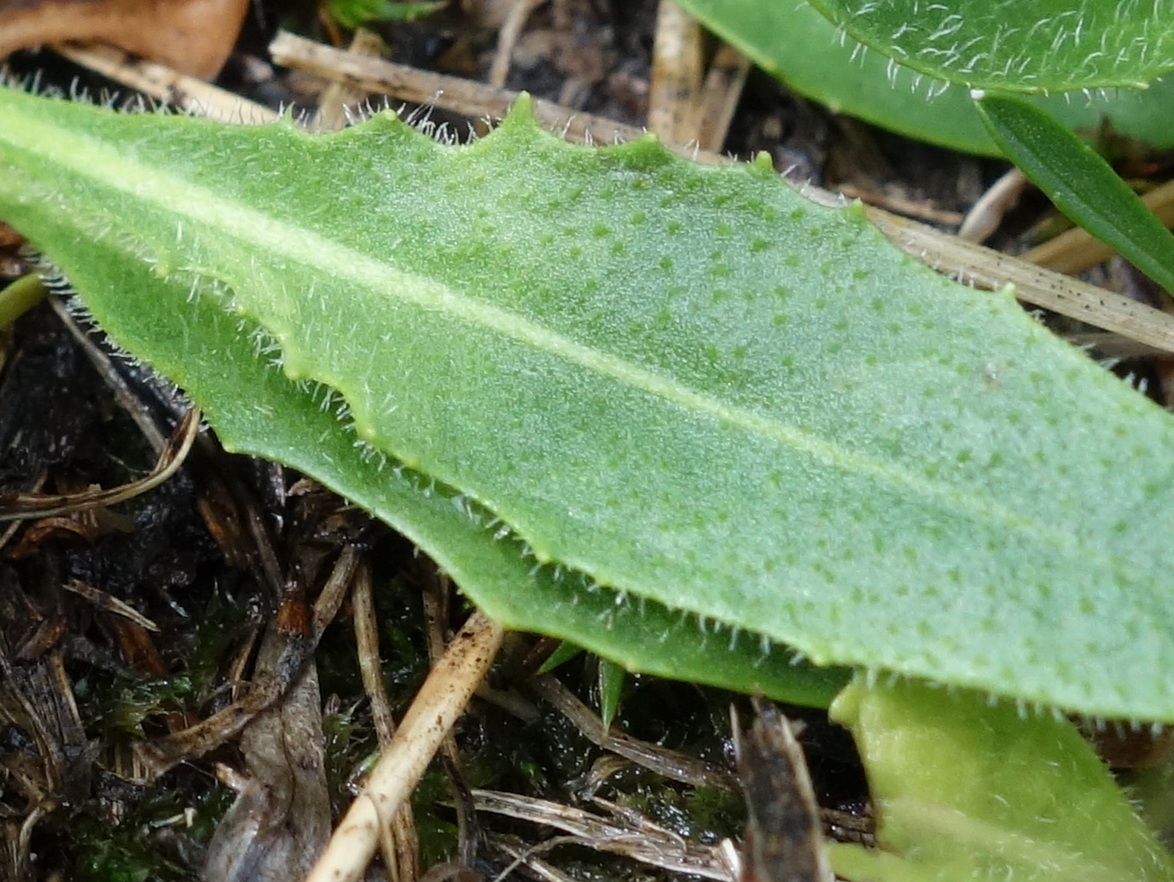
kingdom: Plantae
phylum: Tracheophyta
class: Magnoliopsida
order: Asterales
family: Asteraceae
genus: Scorzoneroides
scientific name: Scorzoneroides helvetica
